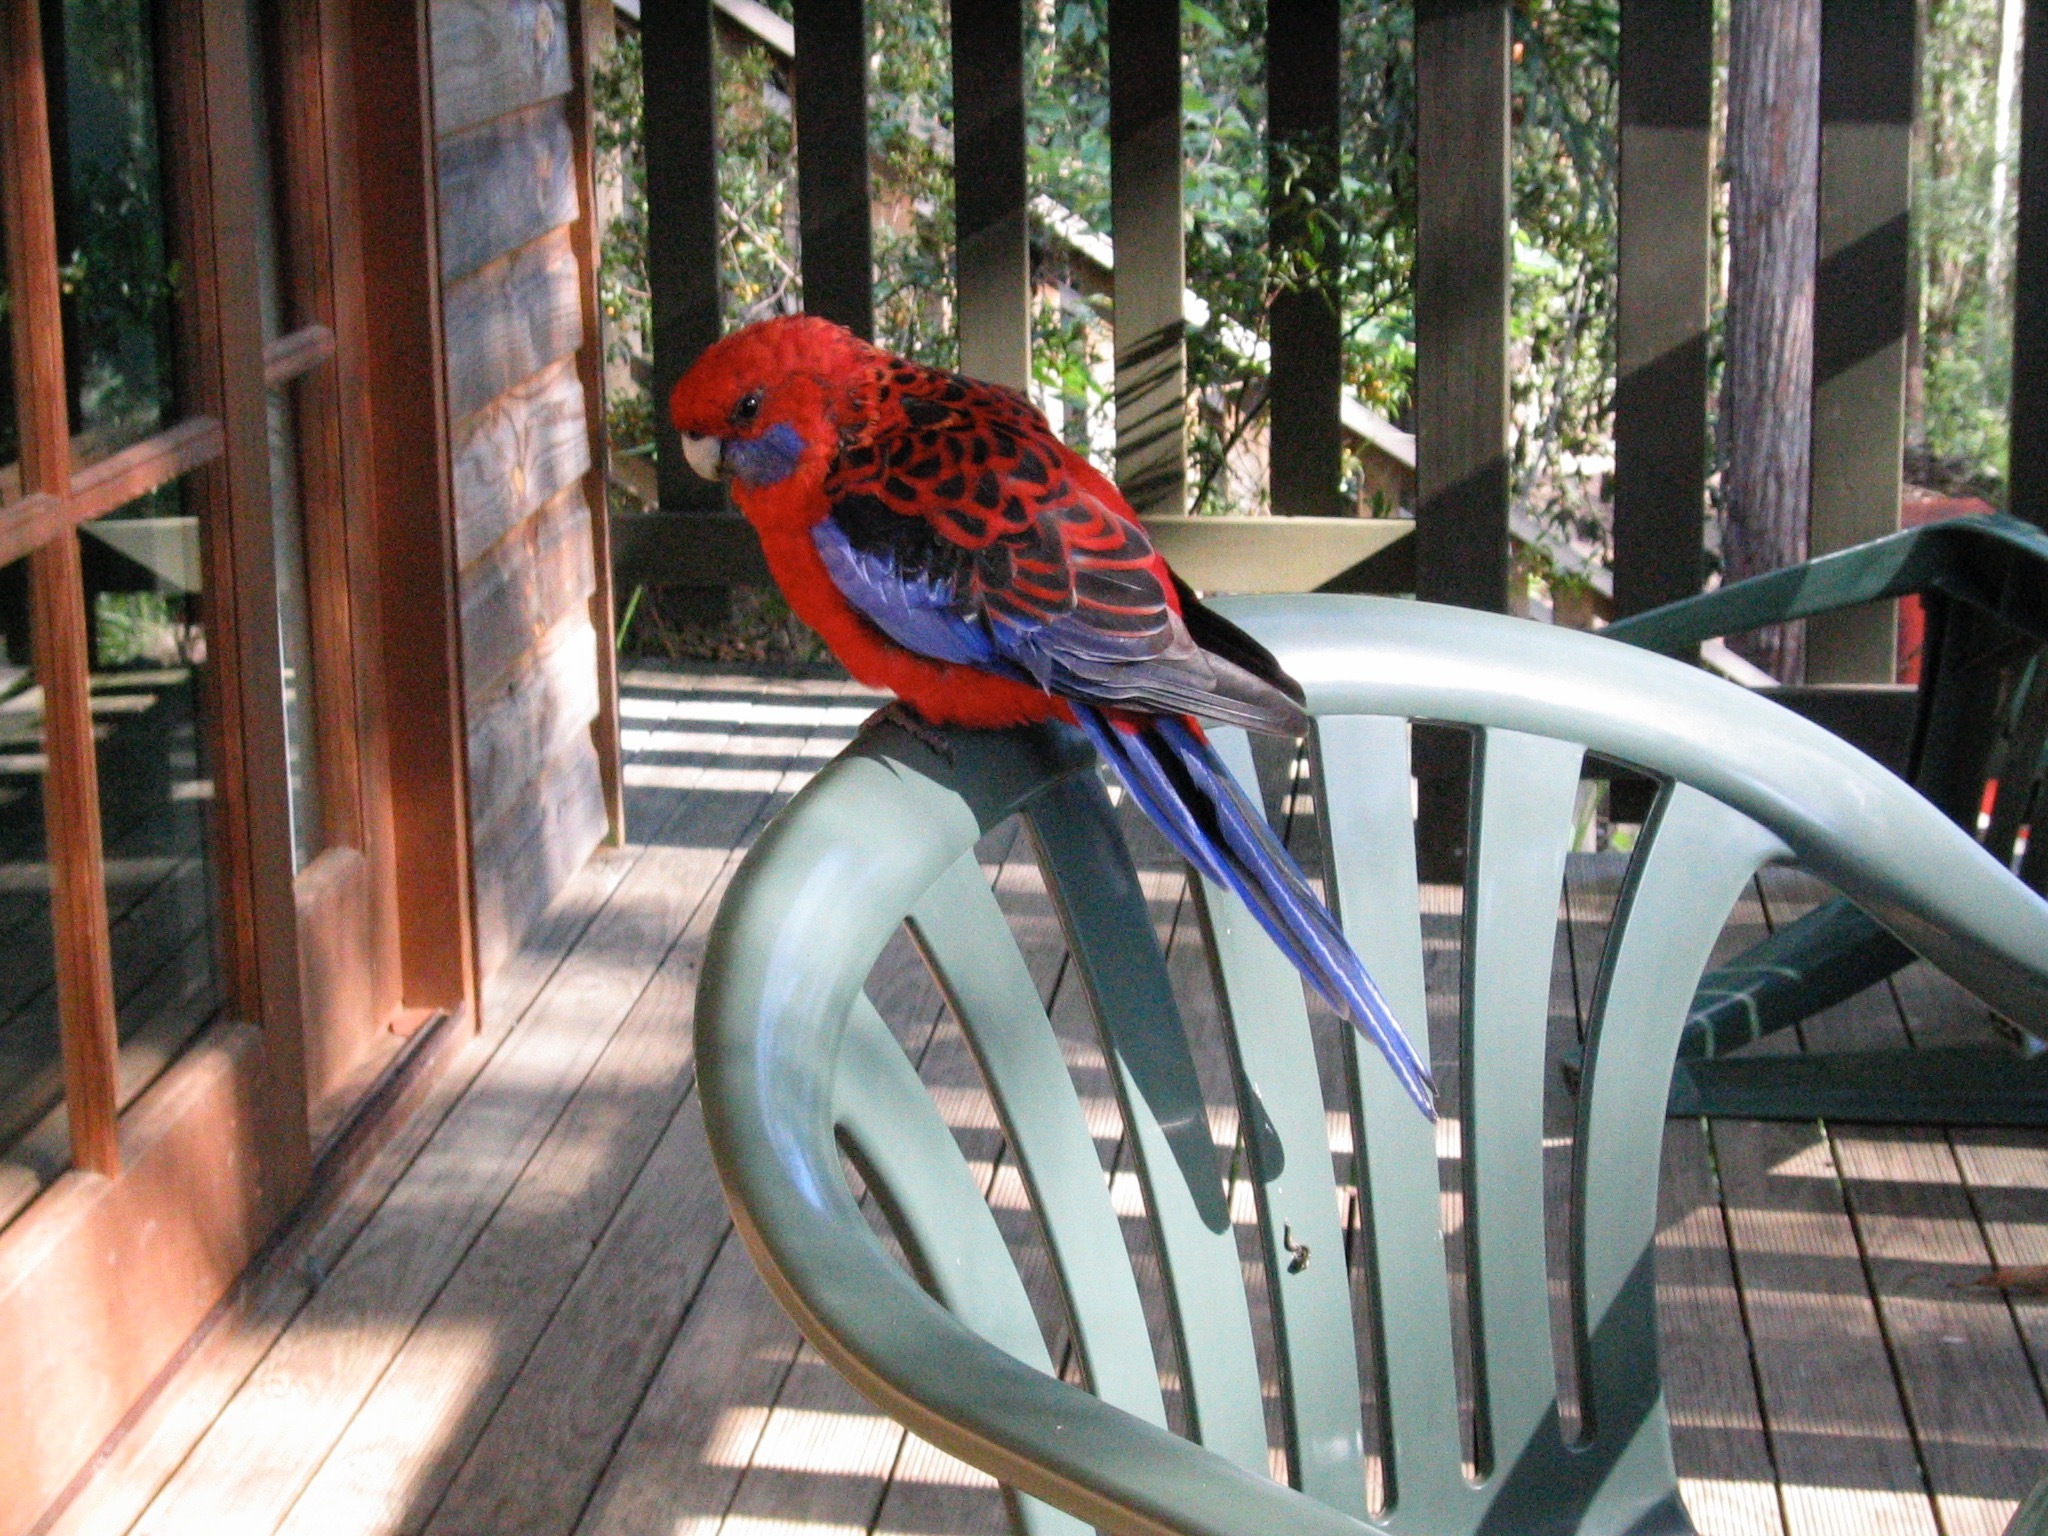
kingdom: Animalia
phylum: Chordata
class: Aves
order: Psittaciformes
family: Psittacidae
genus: Platycercus
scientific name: Platycercus elegans
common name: Crimson rosella
